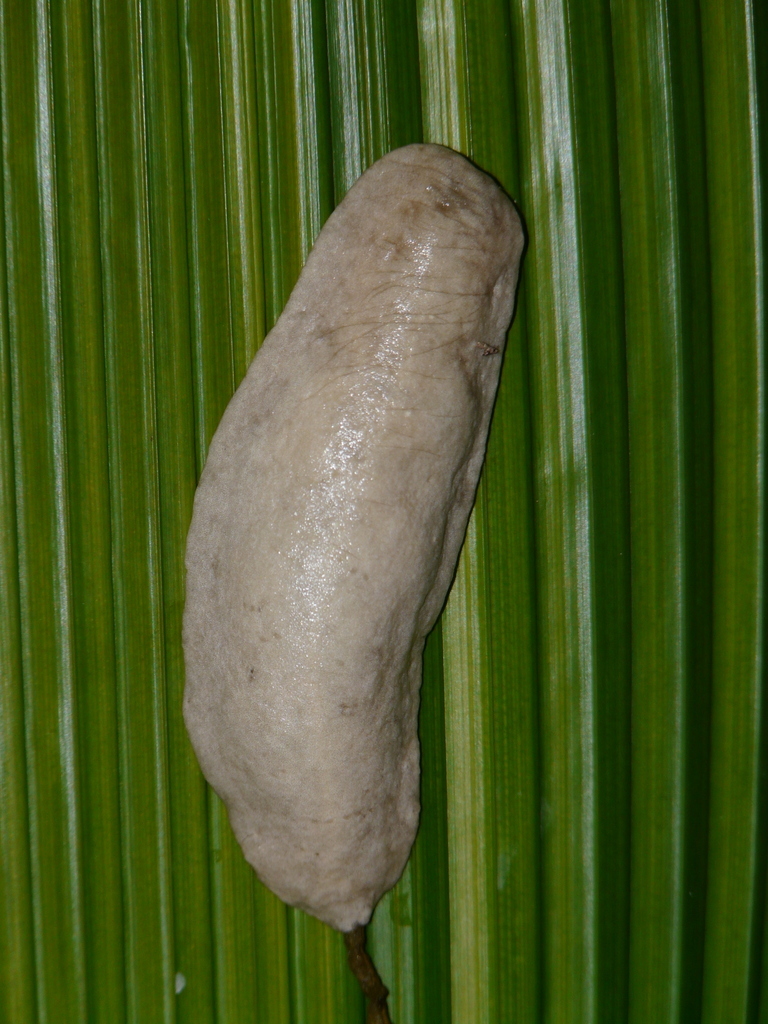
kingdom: Animalia
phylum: Mollusca
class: Gastropoda
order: Systellommatophora
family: Veronicellidae
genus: Leidyula
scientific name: Leidyula sloanii
